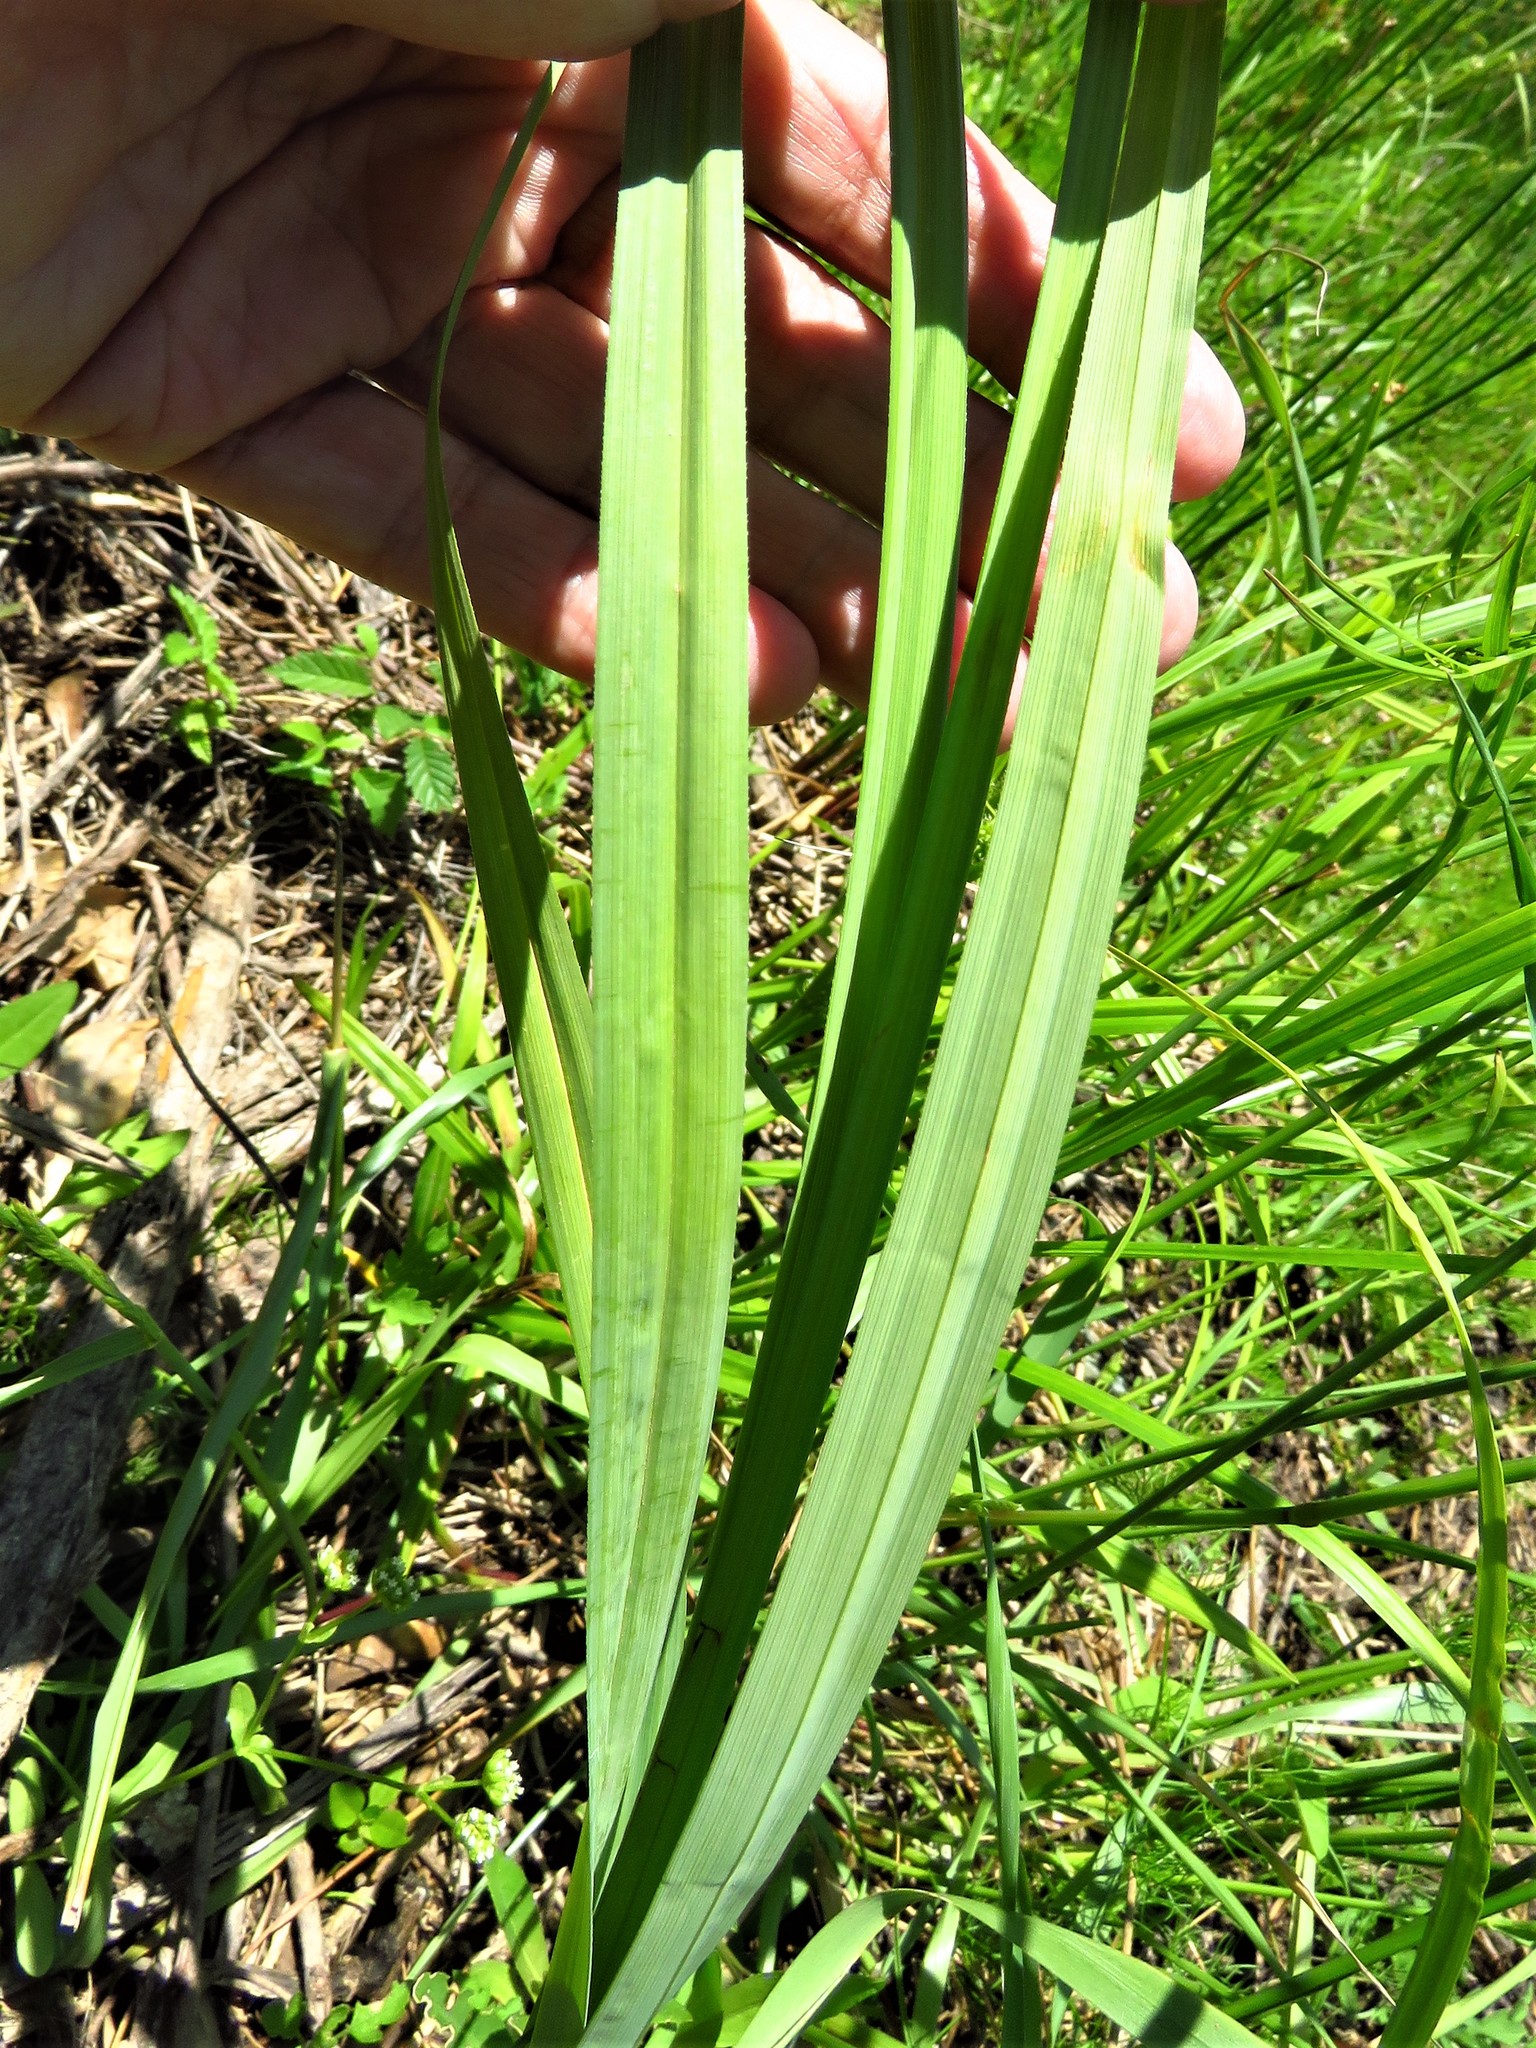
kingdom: Plantae
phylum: Tracheophyta
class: Liliopsida
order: Poales
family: Cyperaceae
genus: Carex
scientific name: Carex crus-corvi
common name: Crow-spur sedge
